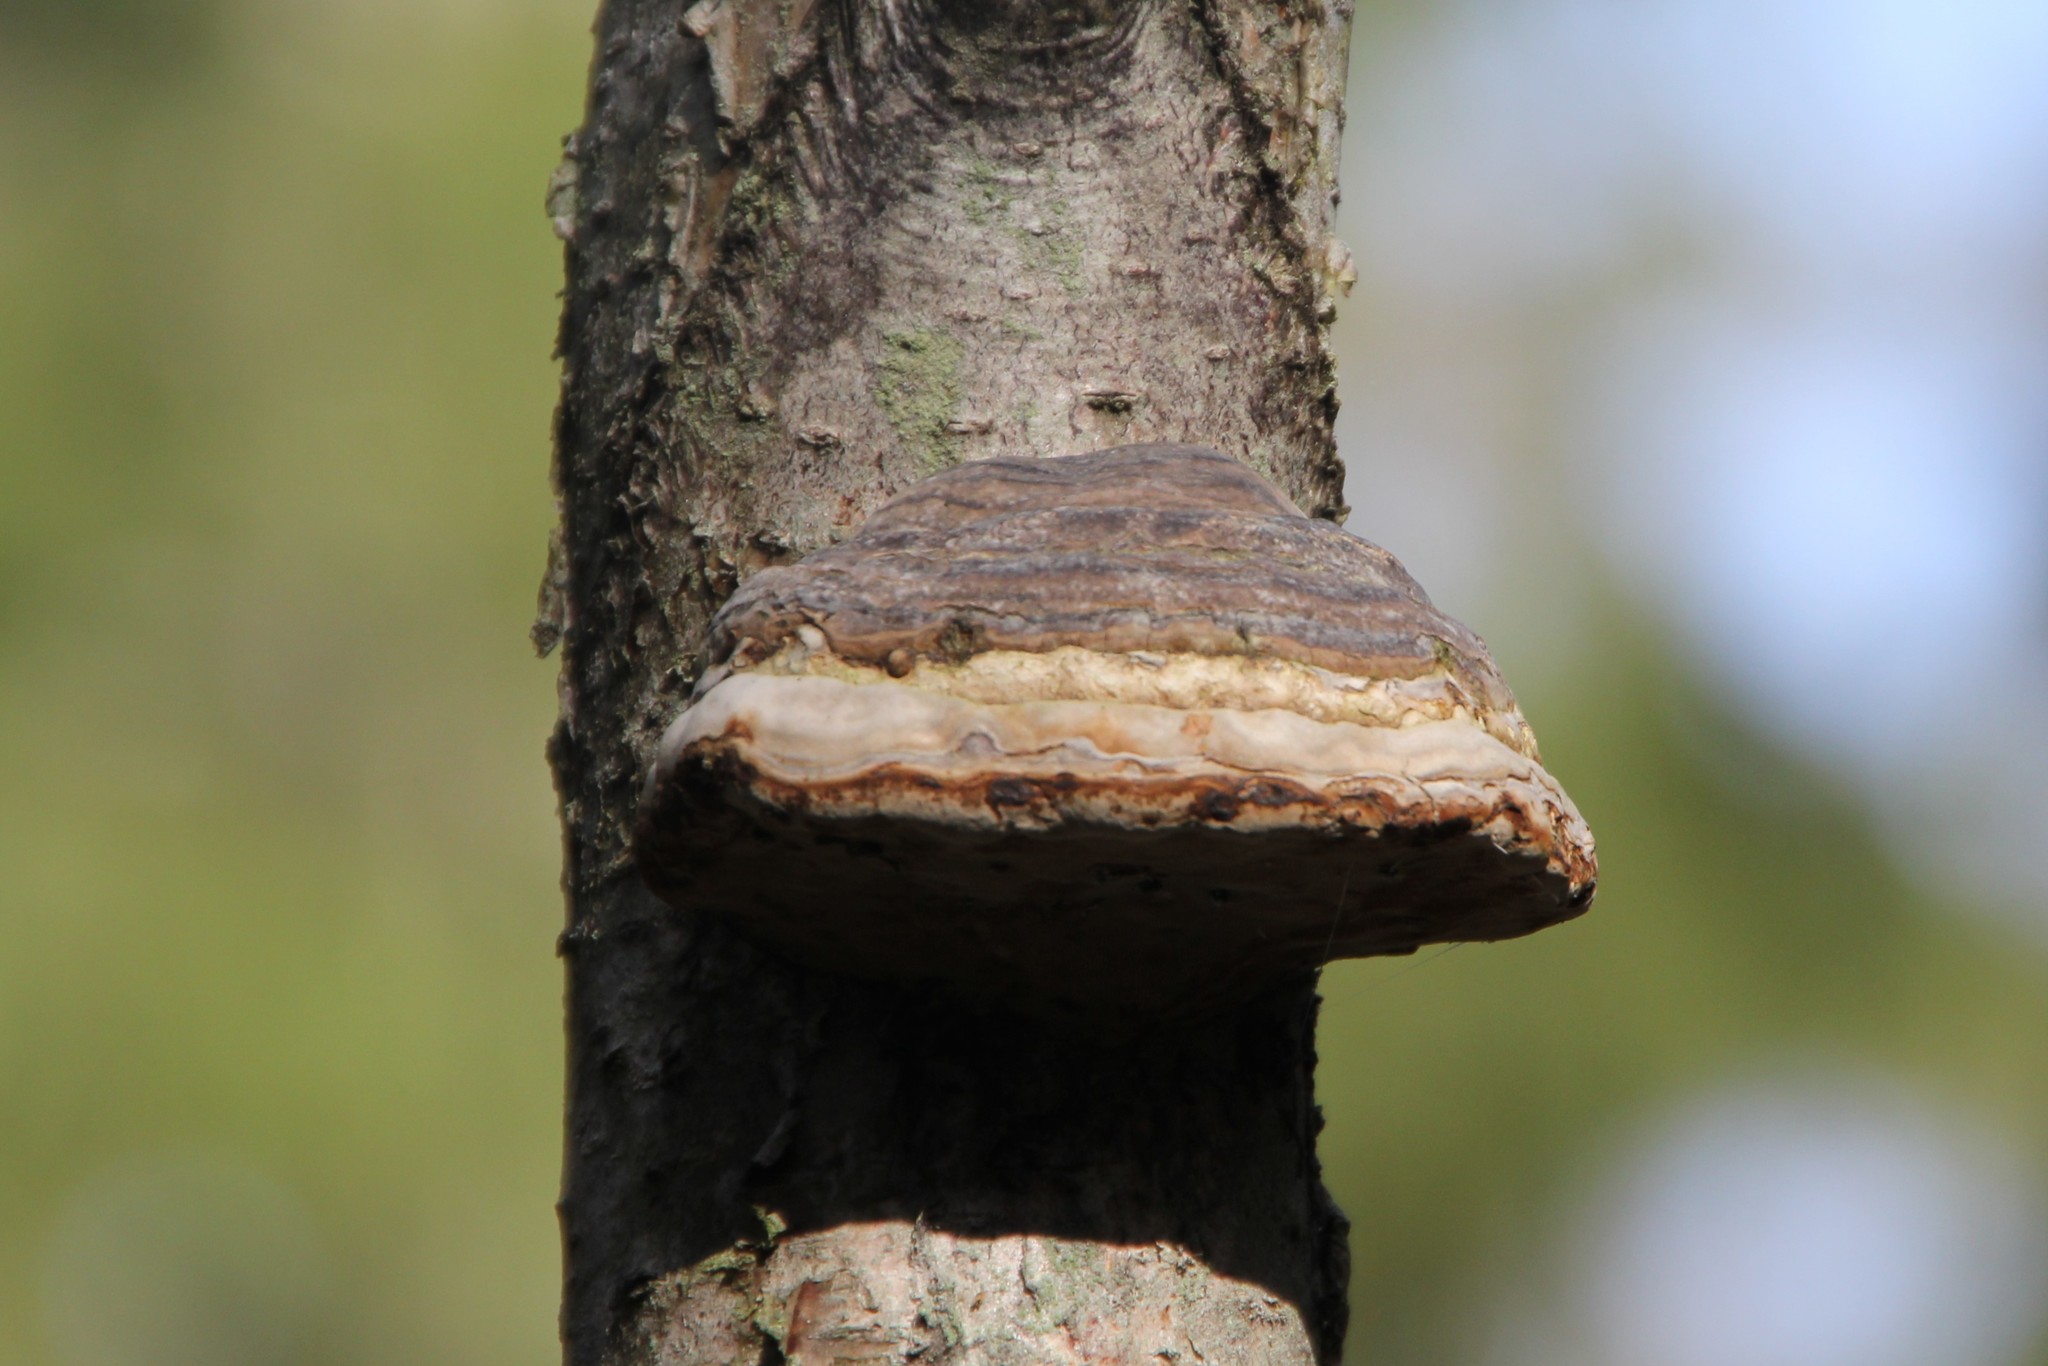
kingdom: Fungi
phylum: Basidiomycota
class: Agaricomycetes
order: Polyporales
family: Polyporaceae
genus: Fomes
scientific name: Fomes fomentarius
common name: Hoof fungus
